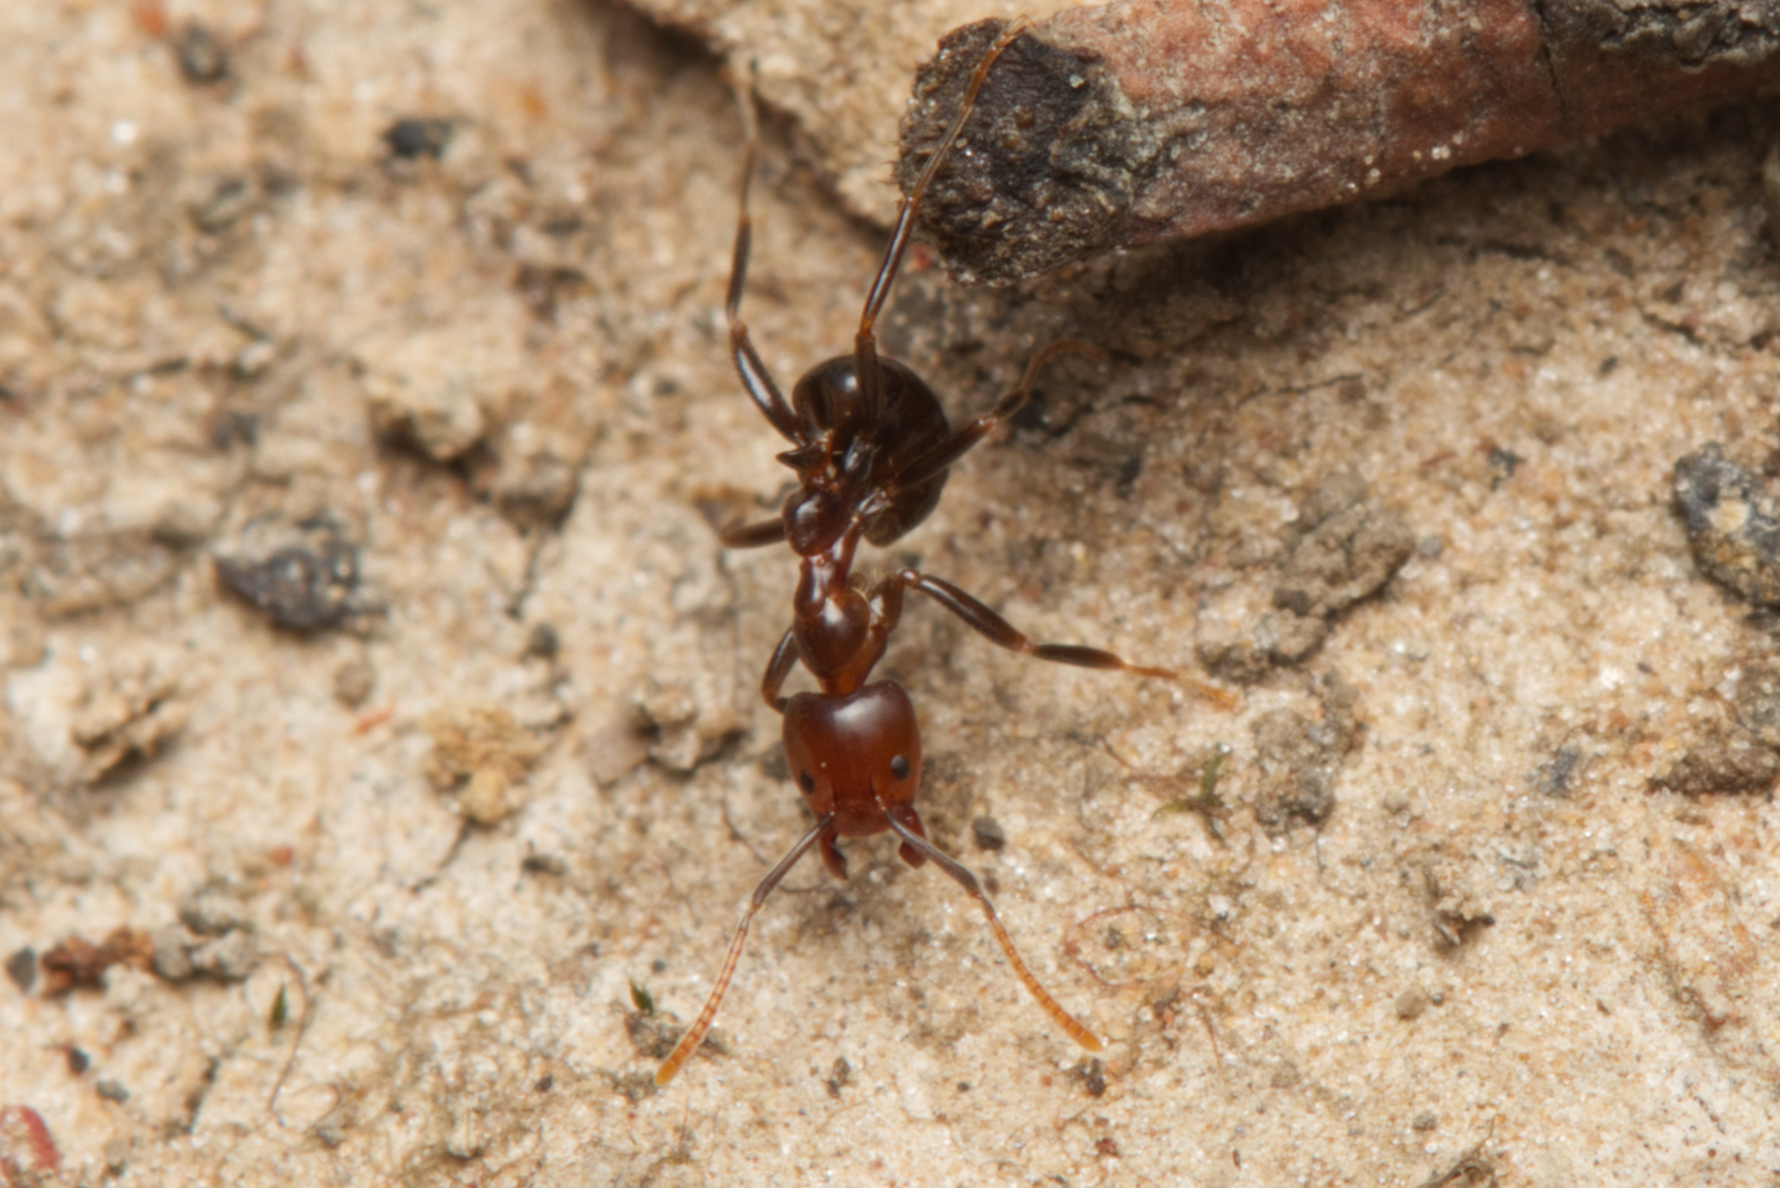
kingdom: Animalia
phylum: Arthropoda
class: Insecta
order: Hymenoptera
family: Formicidae
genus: Papyrius
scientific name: Papyrius nitidus
